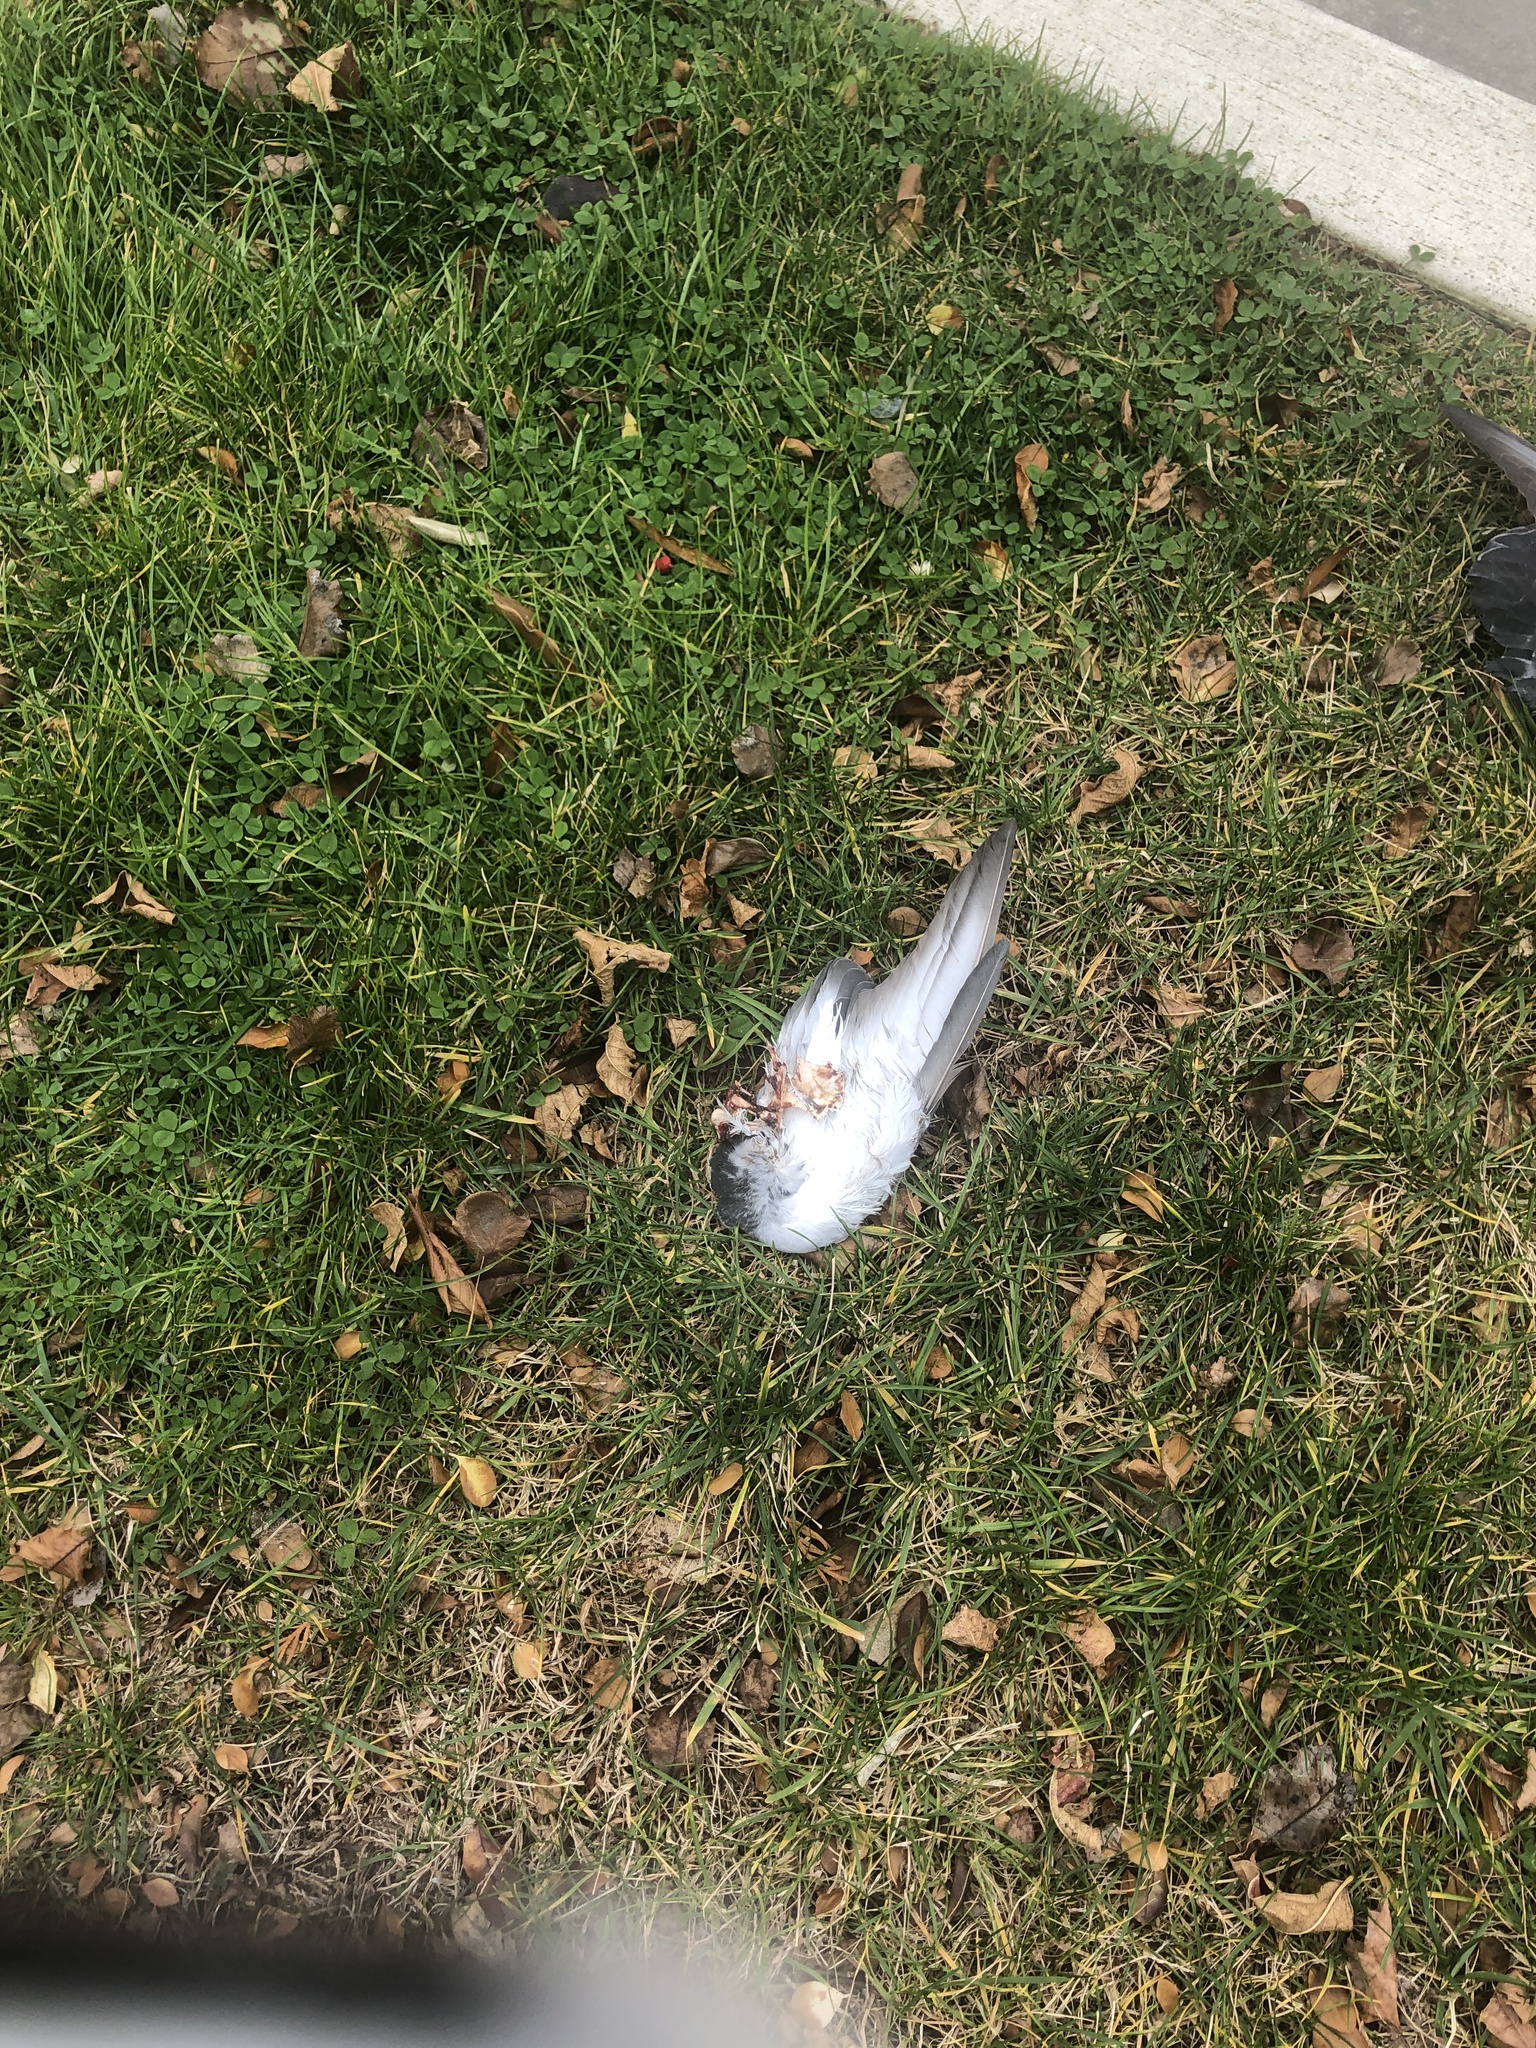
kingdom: Animalia
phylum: Chordata
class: Aves
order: Columbiformes
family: Columbidae
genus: Columba
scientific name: Columba livia
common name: Rock pigeon
